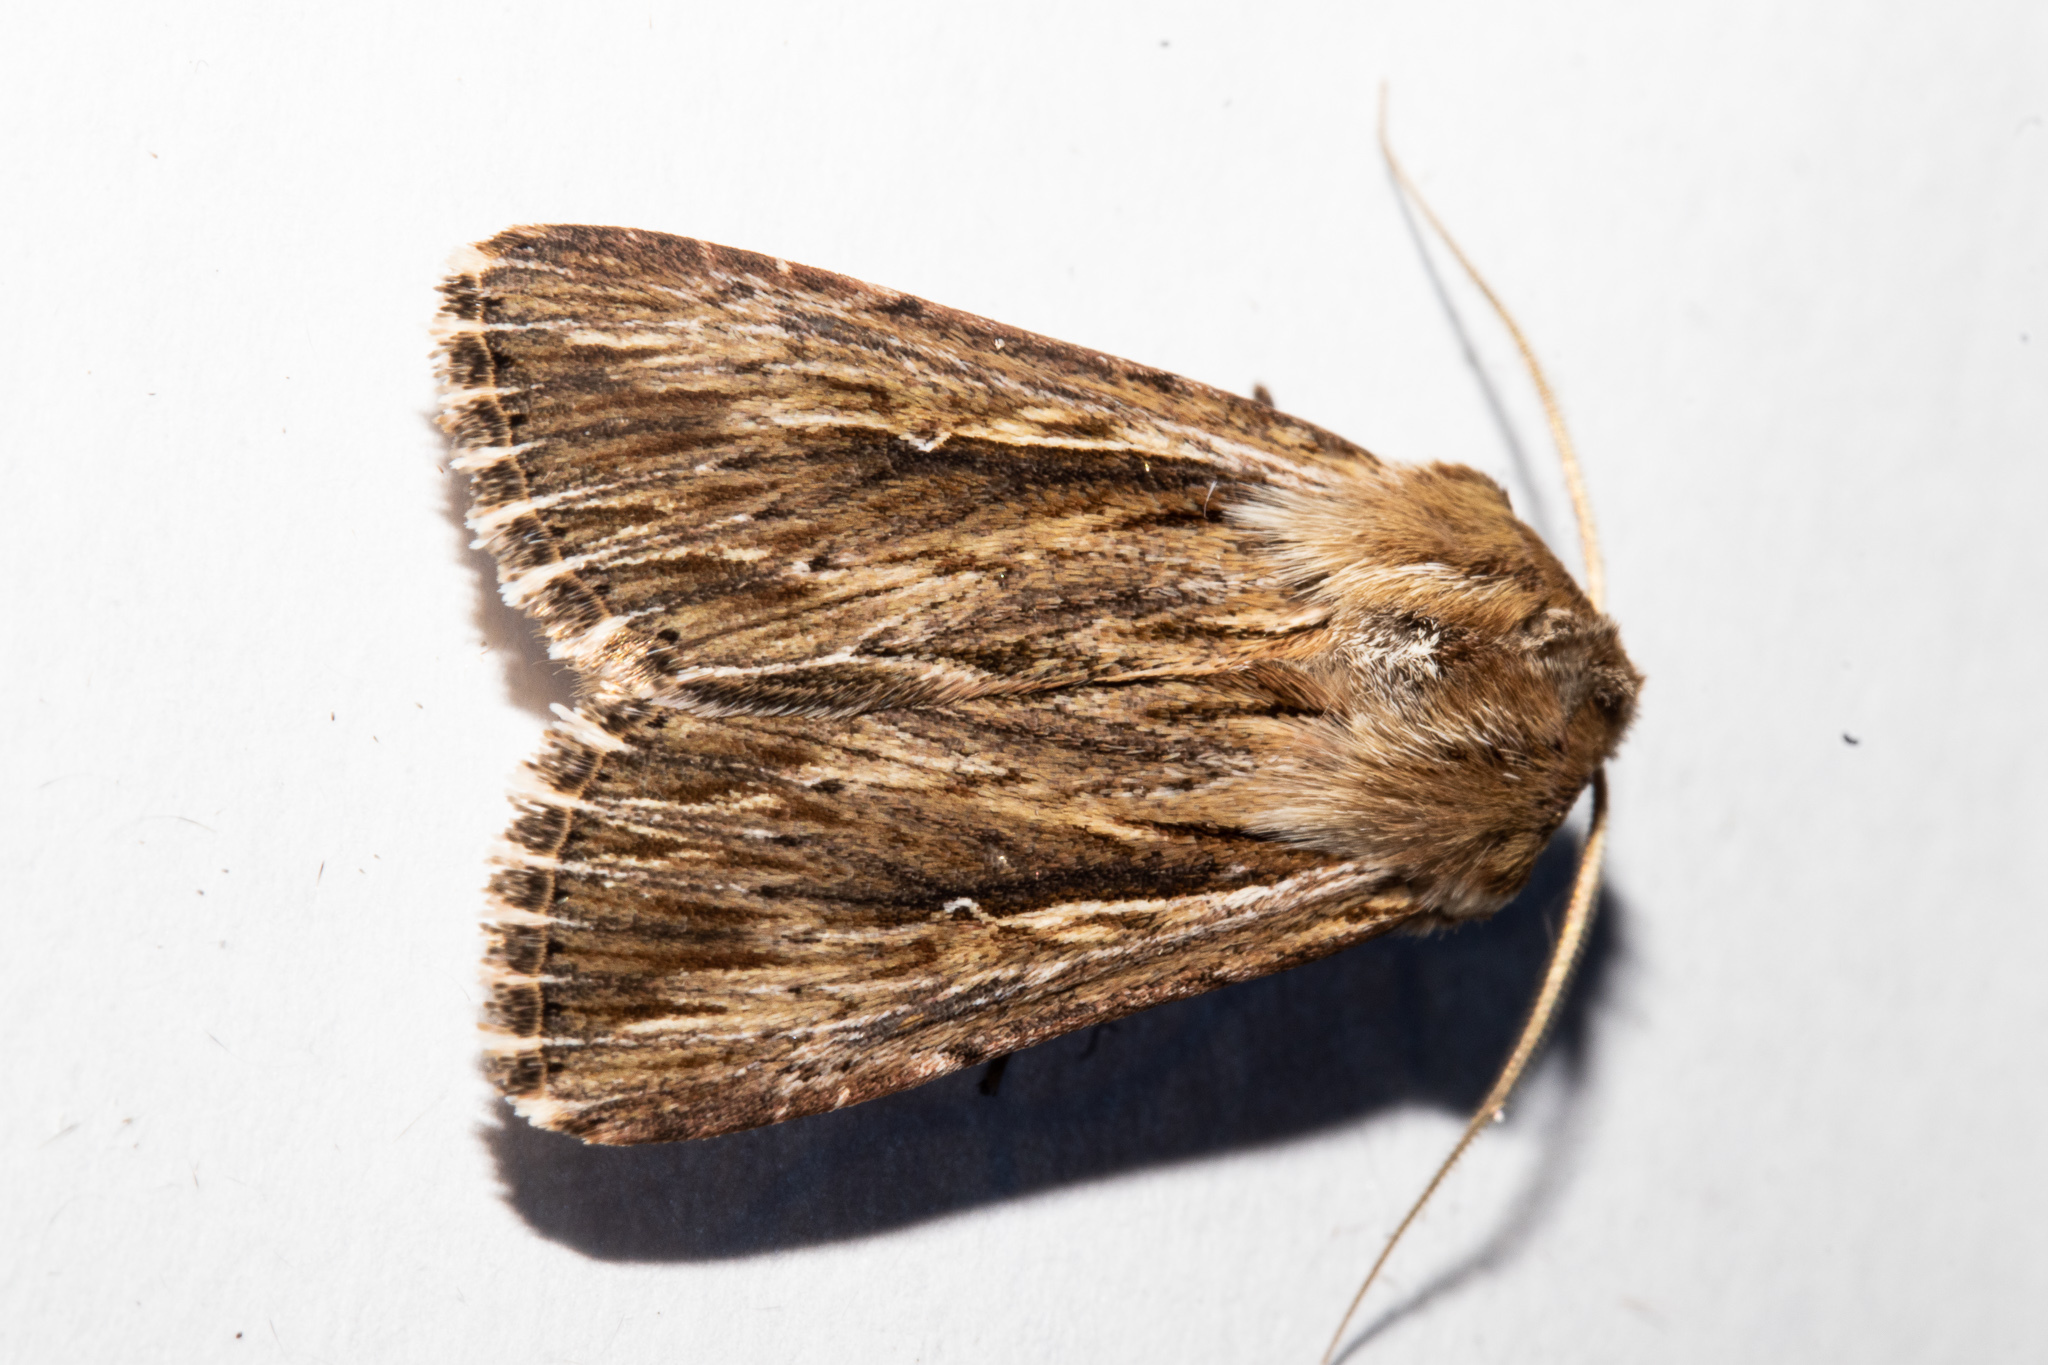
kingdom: Animalia
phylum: Arthropoda
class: Insecta
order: Lepidoptera
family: Noctuidae
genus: Persectania
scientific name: Persectania aversa
